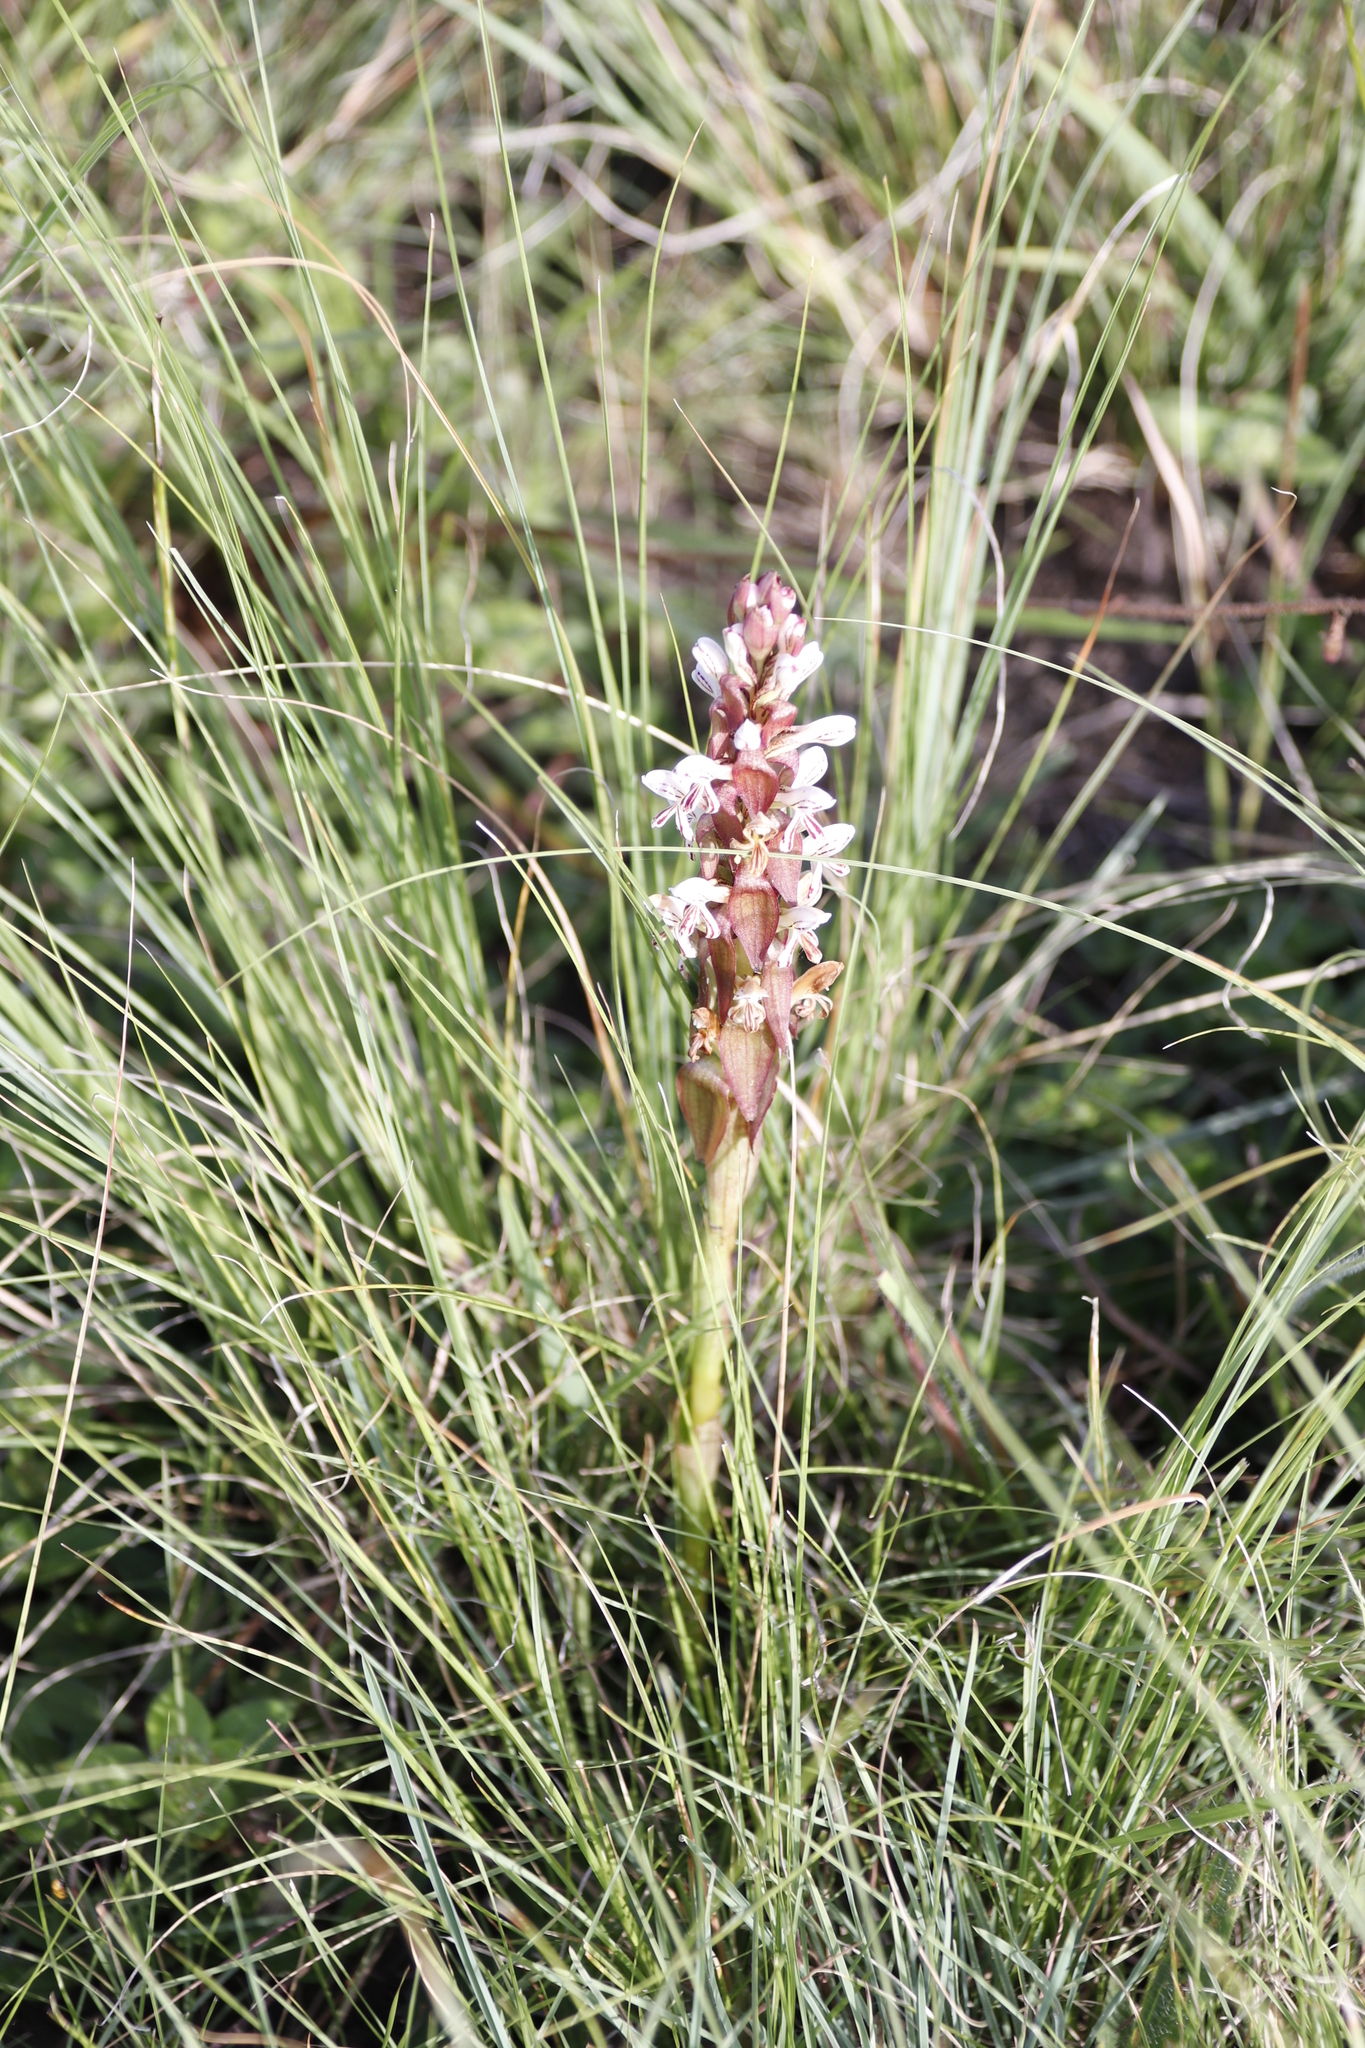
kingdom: Plantae
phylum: Tracheophyta
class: Liliopsida
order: Asparagales
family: Orchidaceae
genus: Satyrium
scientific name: Satyrium cristatum
